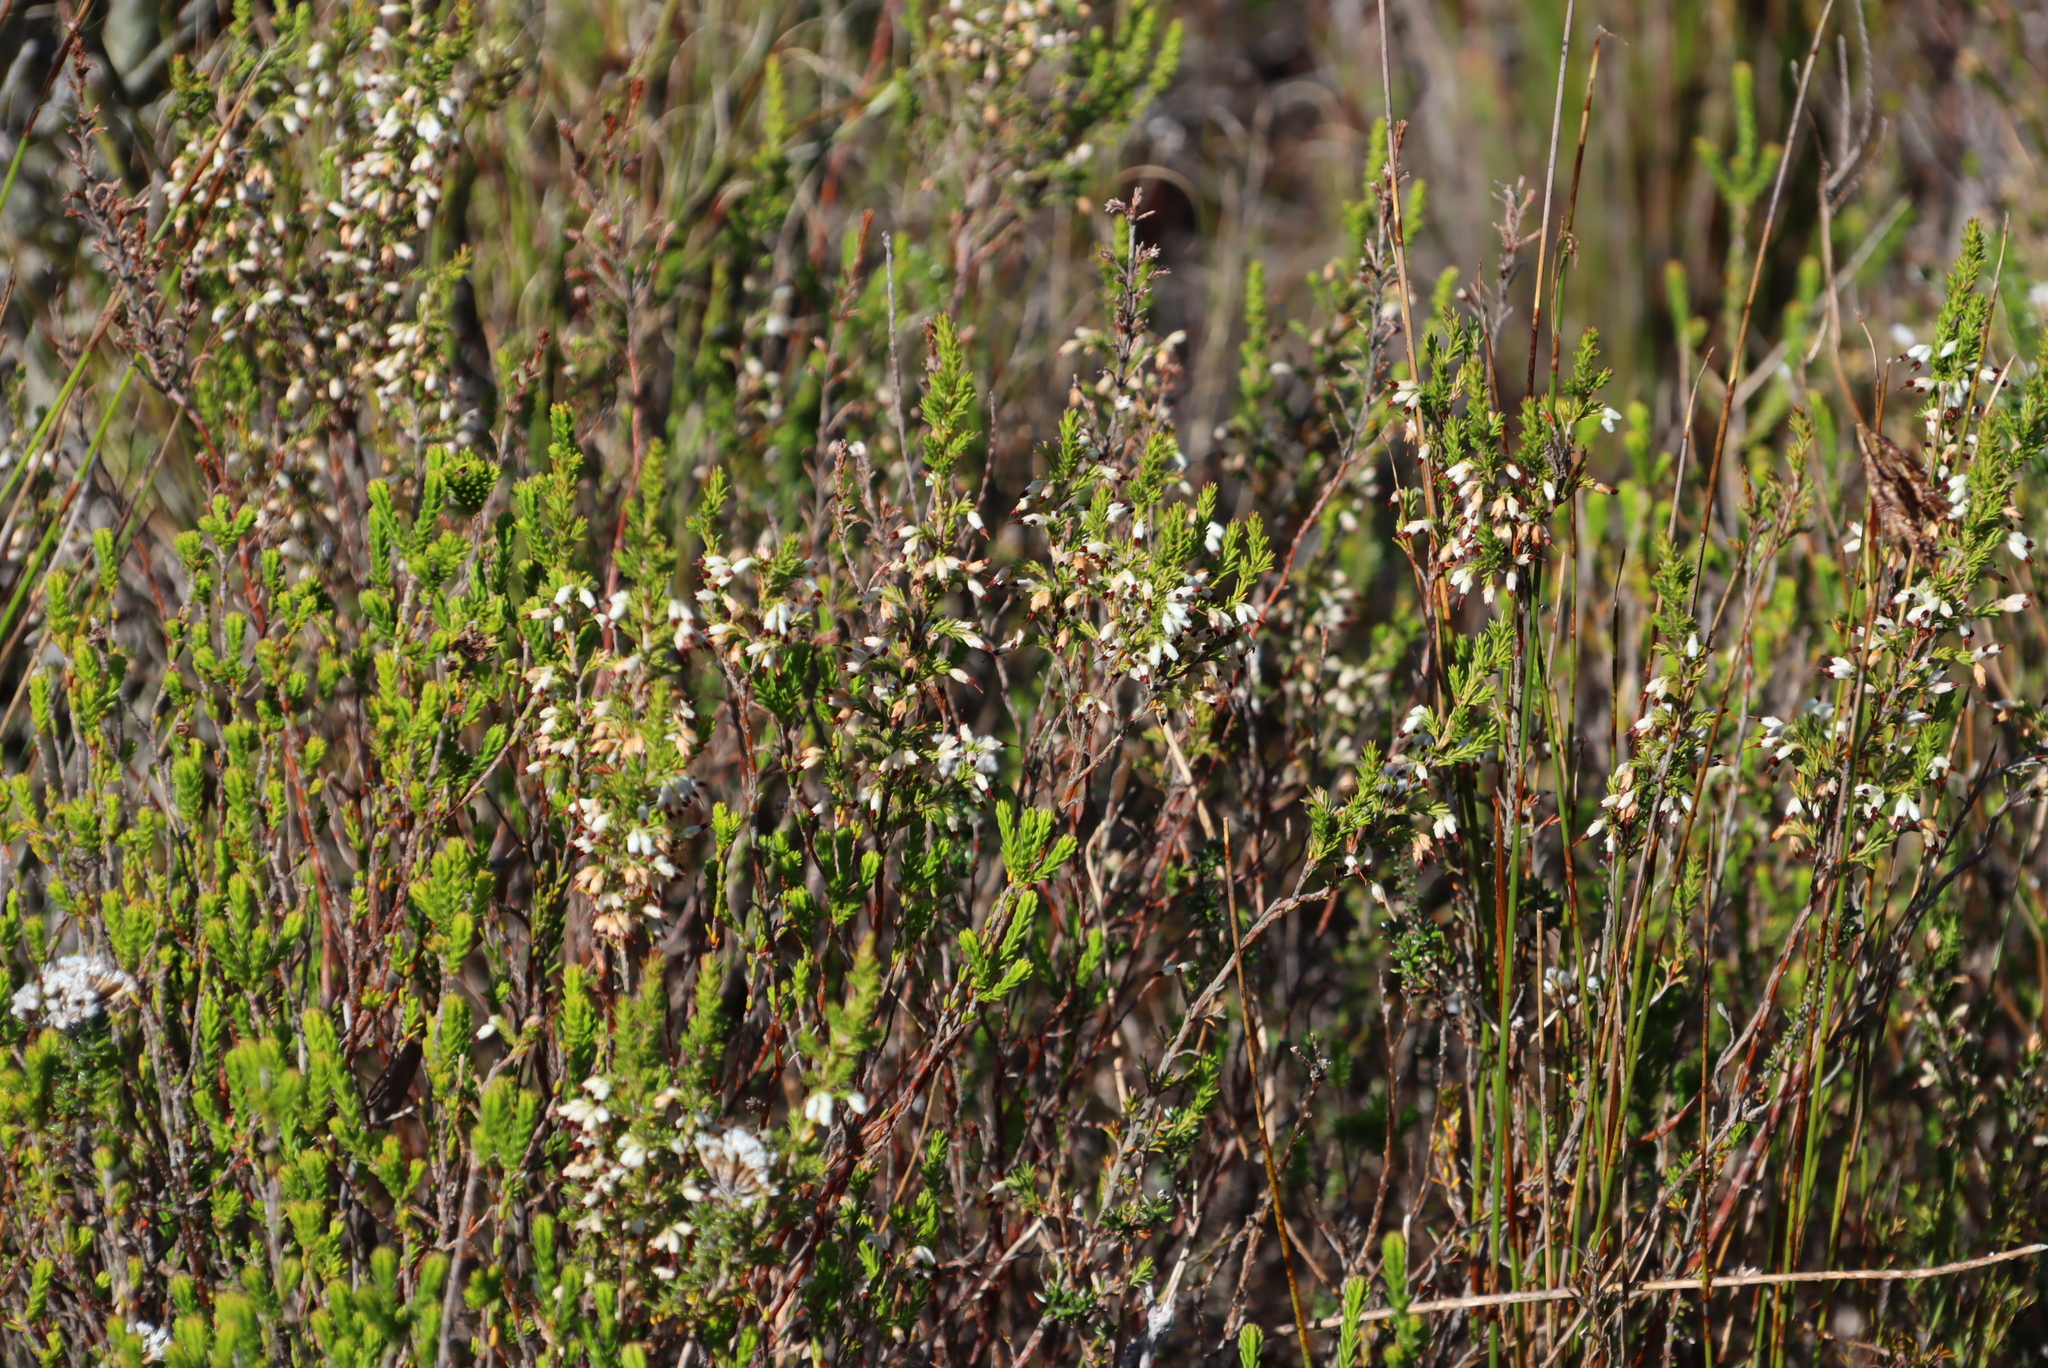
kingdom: Plantae
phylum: Tracheophyta
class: Magnoliopsida
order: Ericales
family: Ericaceae
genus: Erica
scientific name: Erica imbricata
